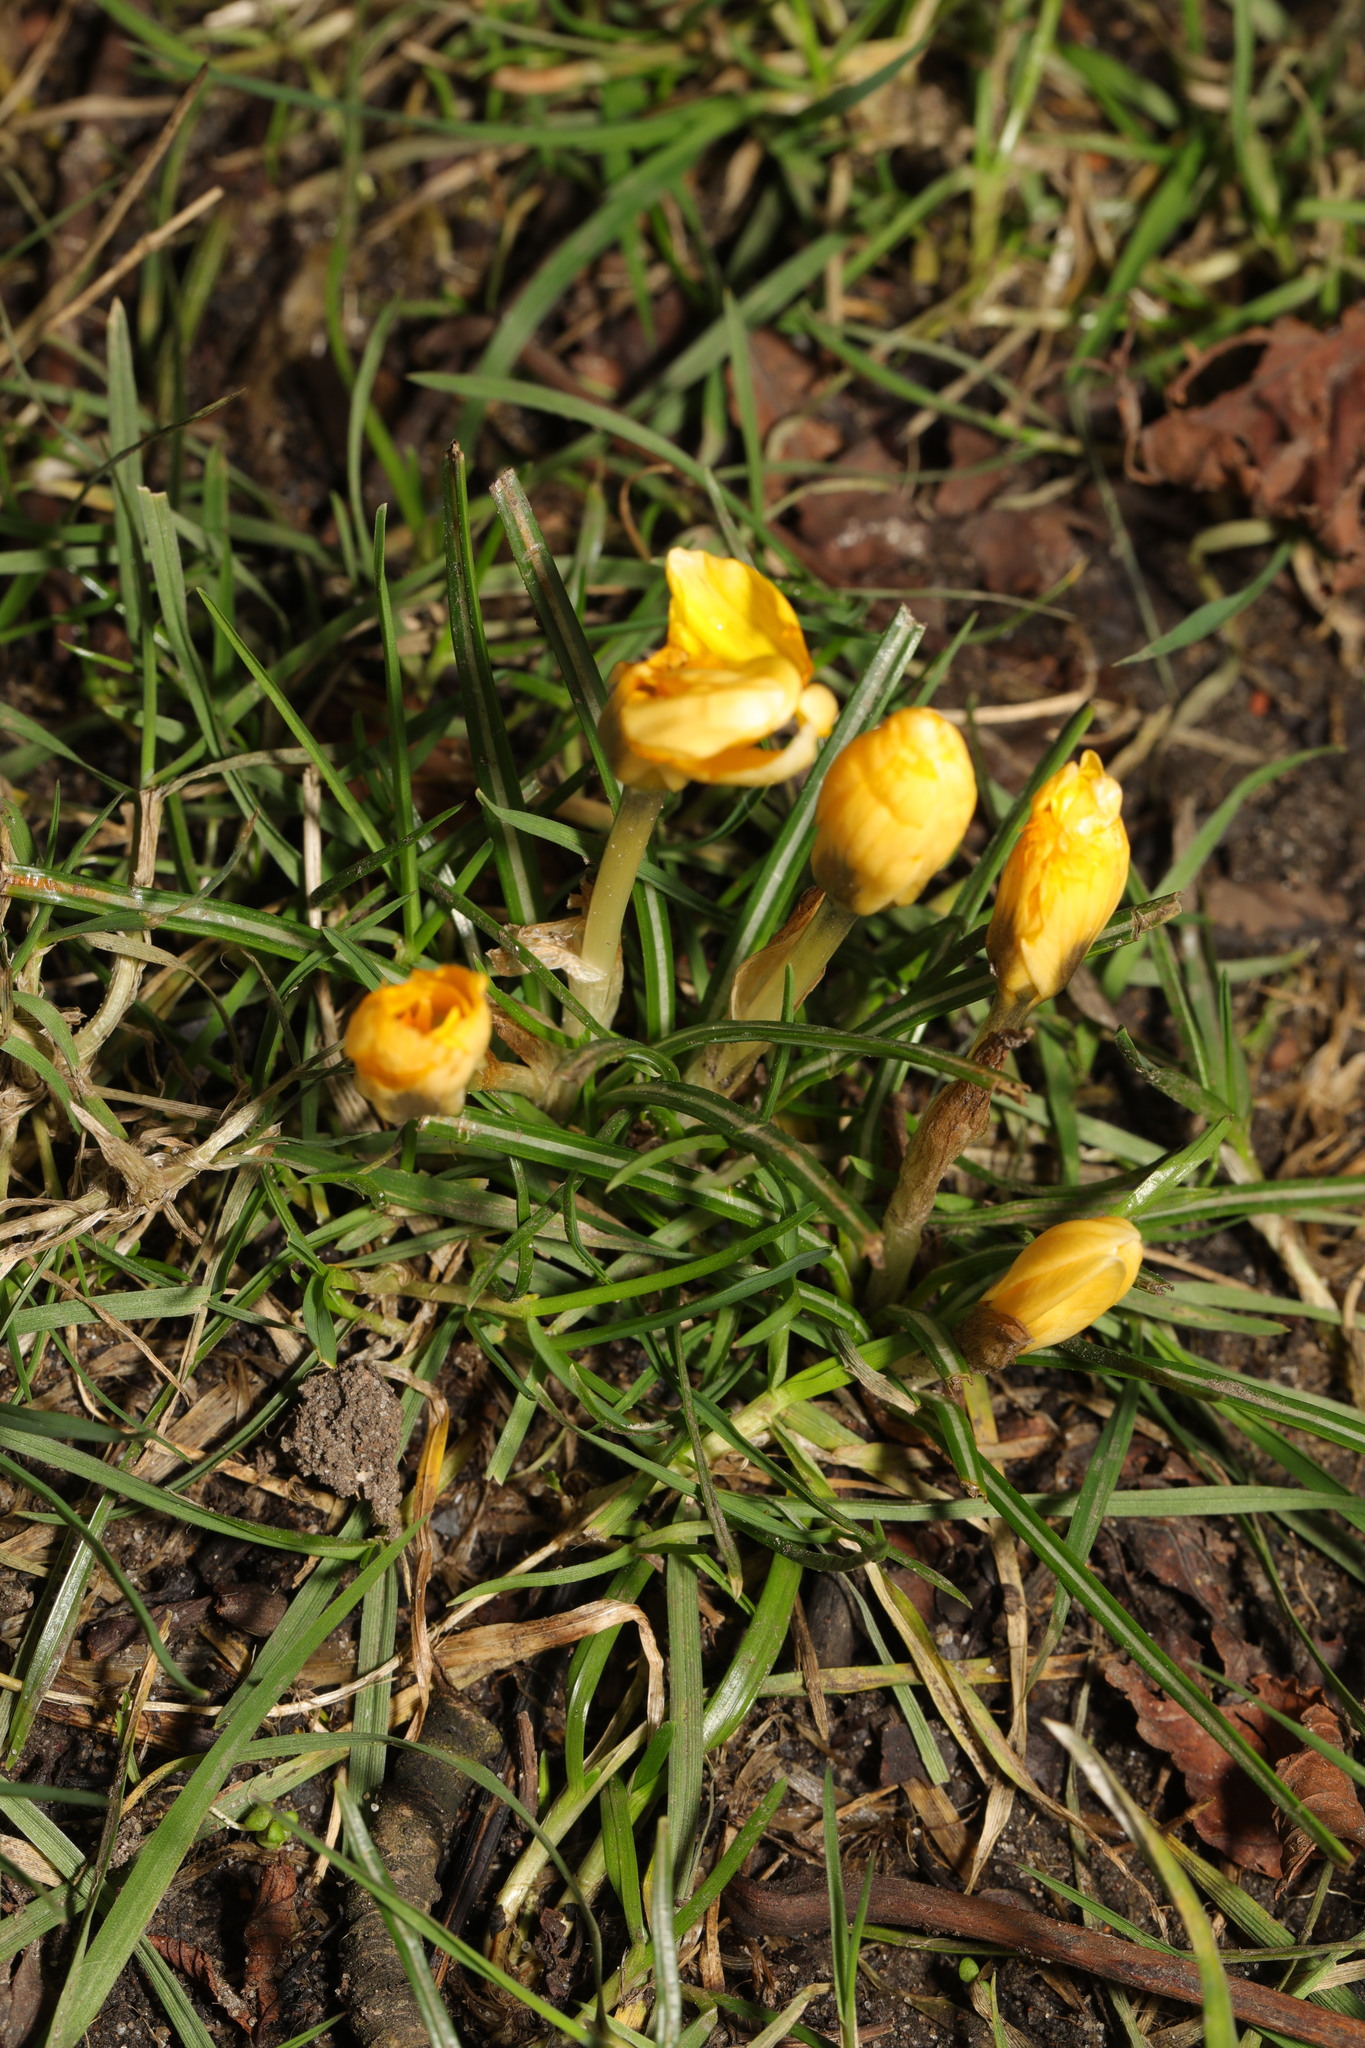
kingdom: Plantae
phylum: Tracheophyta
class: Liliopsida
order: Asparagales
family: Iridaceae
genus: Crocus
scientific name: Crocus luteus
